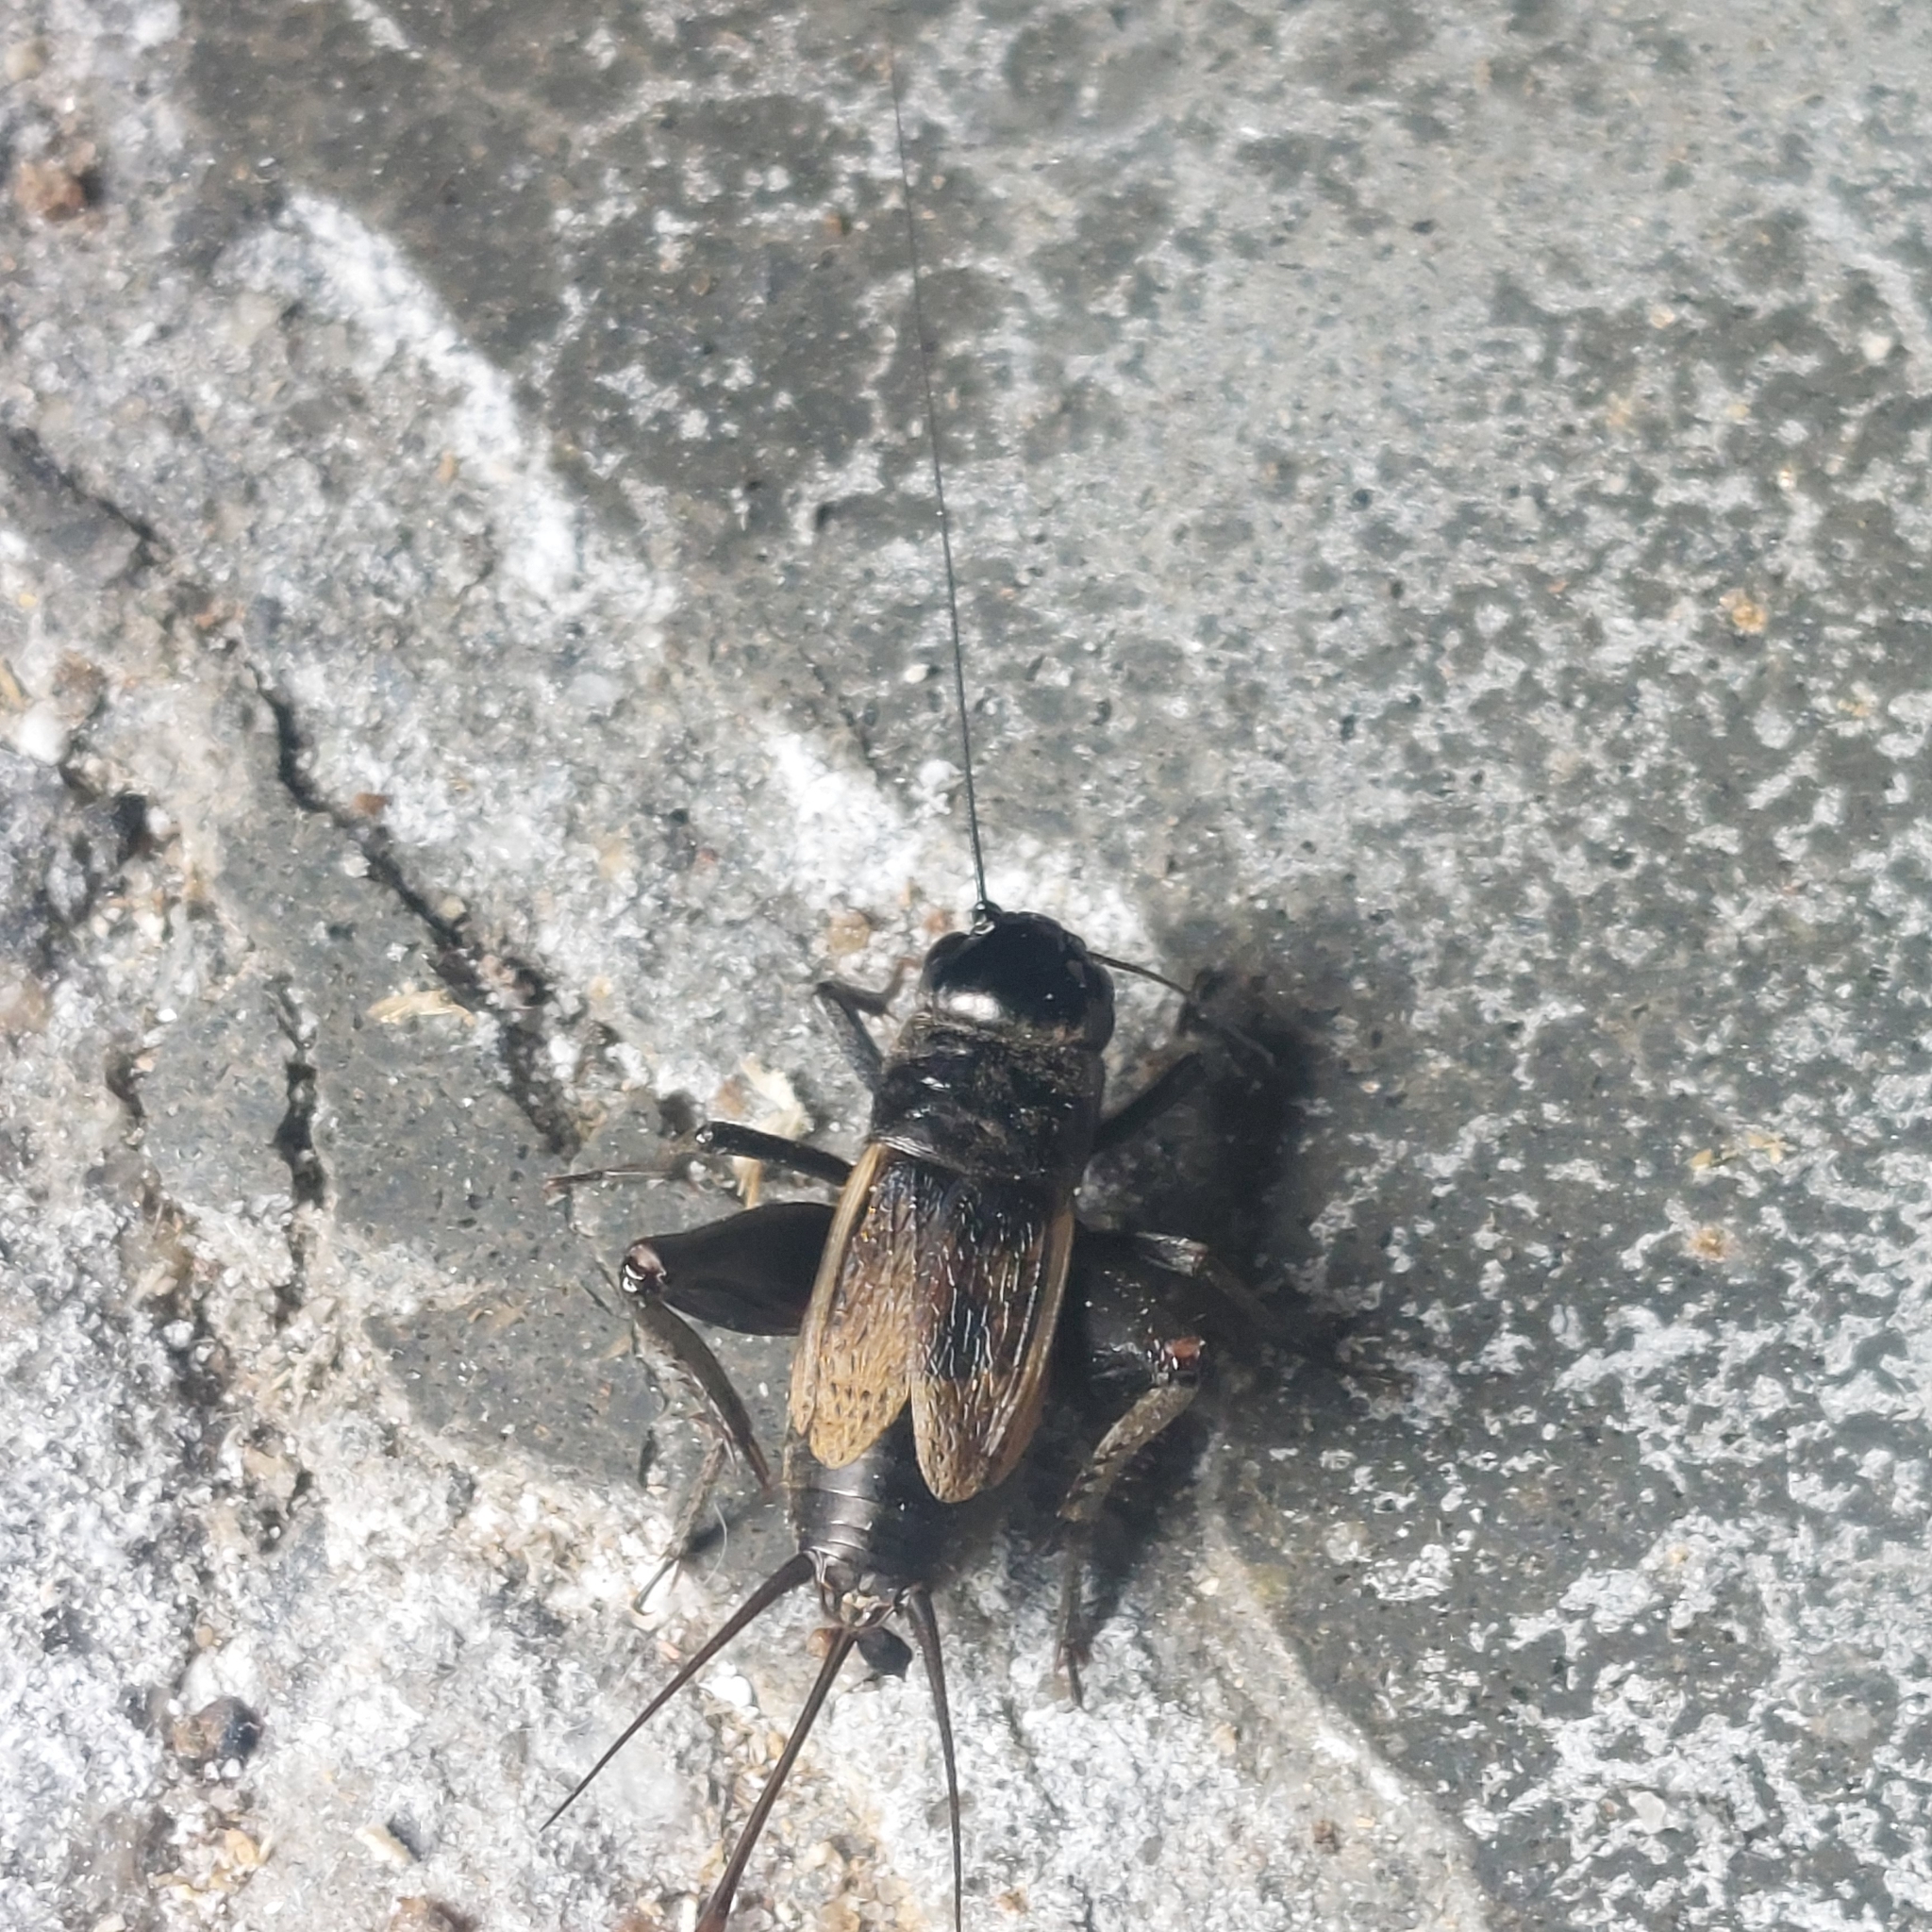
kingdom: Animalia
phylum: Arthropoda
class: Insecta
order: Orthoptera
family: Gryllidae
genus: Gryllus
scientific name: Gryllus pennsylvanicus
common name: Fall field cricket
